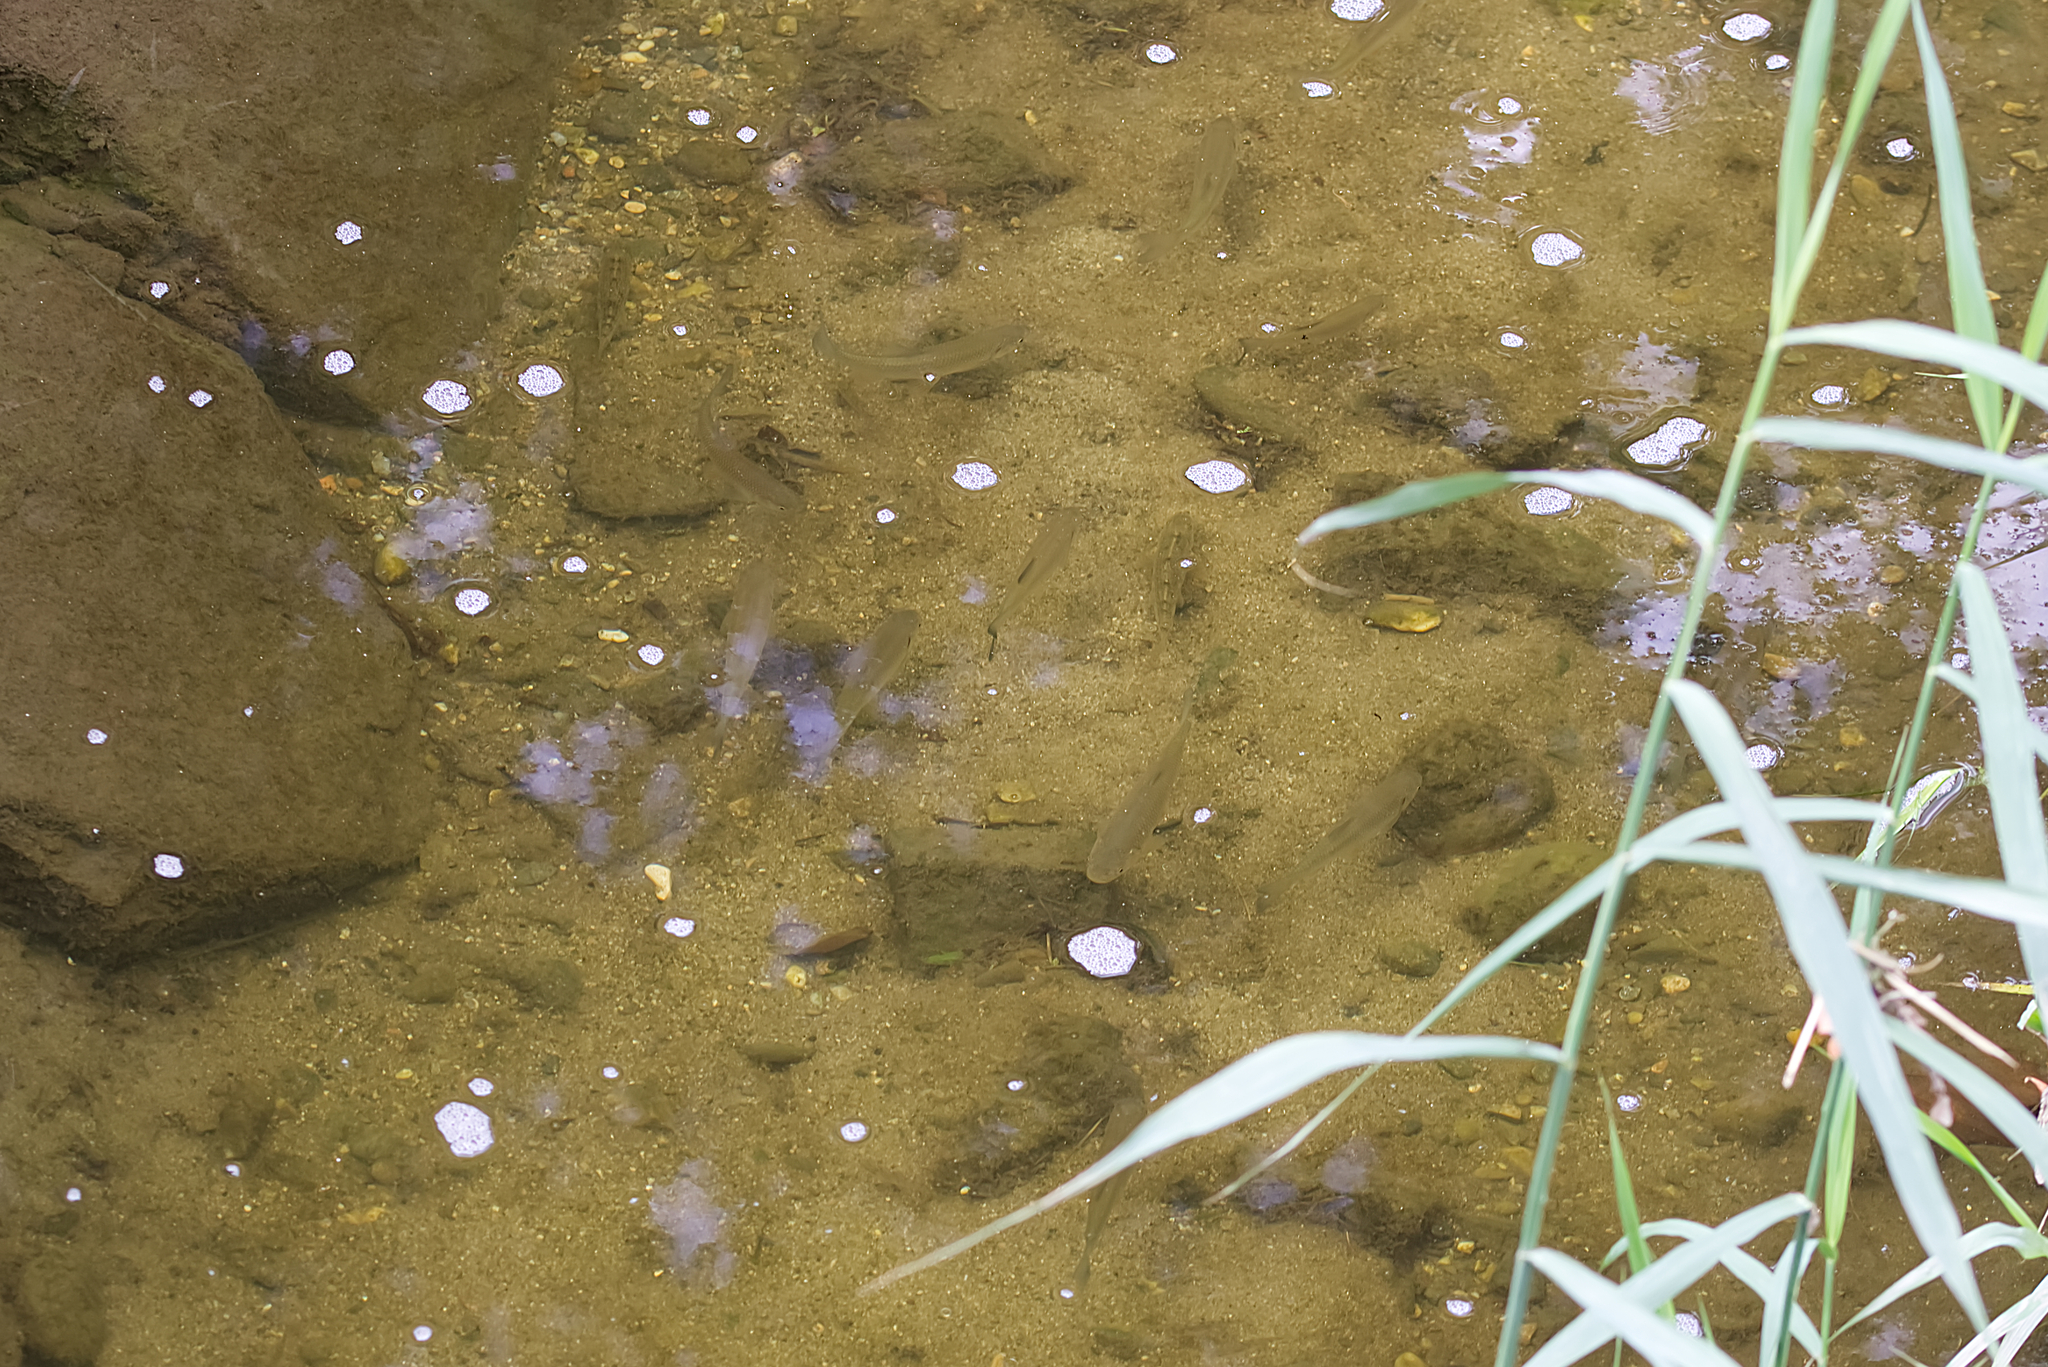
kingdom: Animalia
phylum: Chordata
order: Cypriniformes
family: Cyprinidae
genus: Squalius
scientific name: Squalius cephalus
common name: Chub
